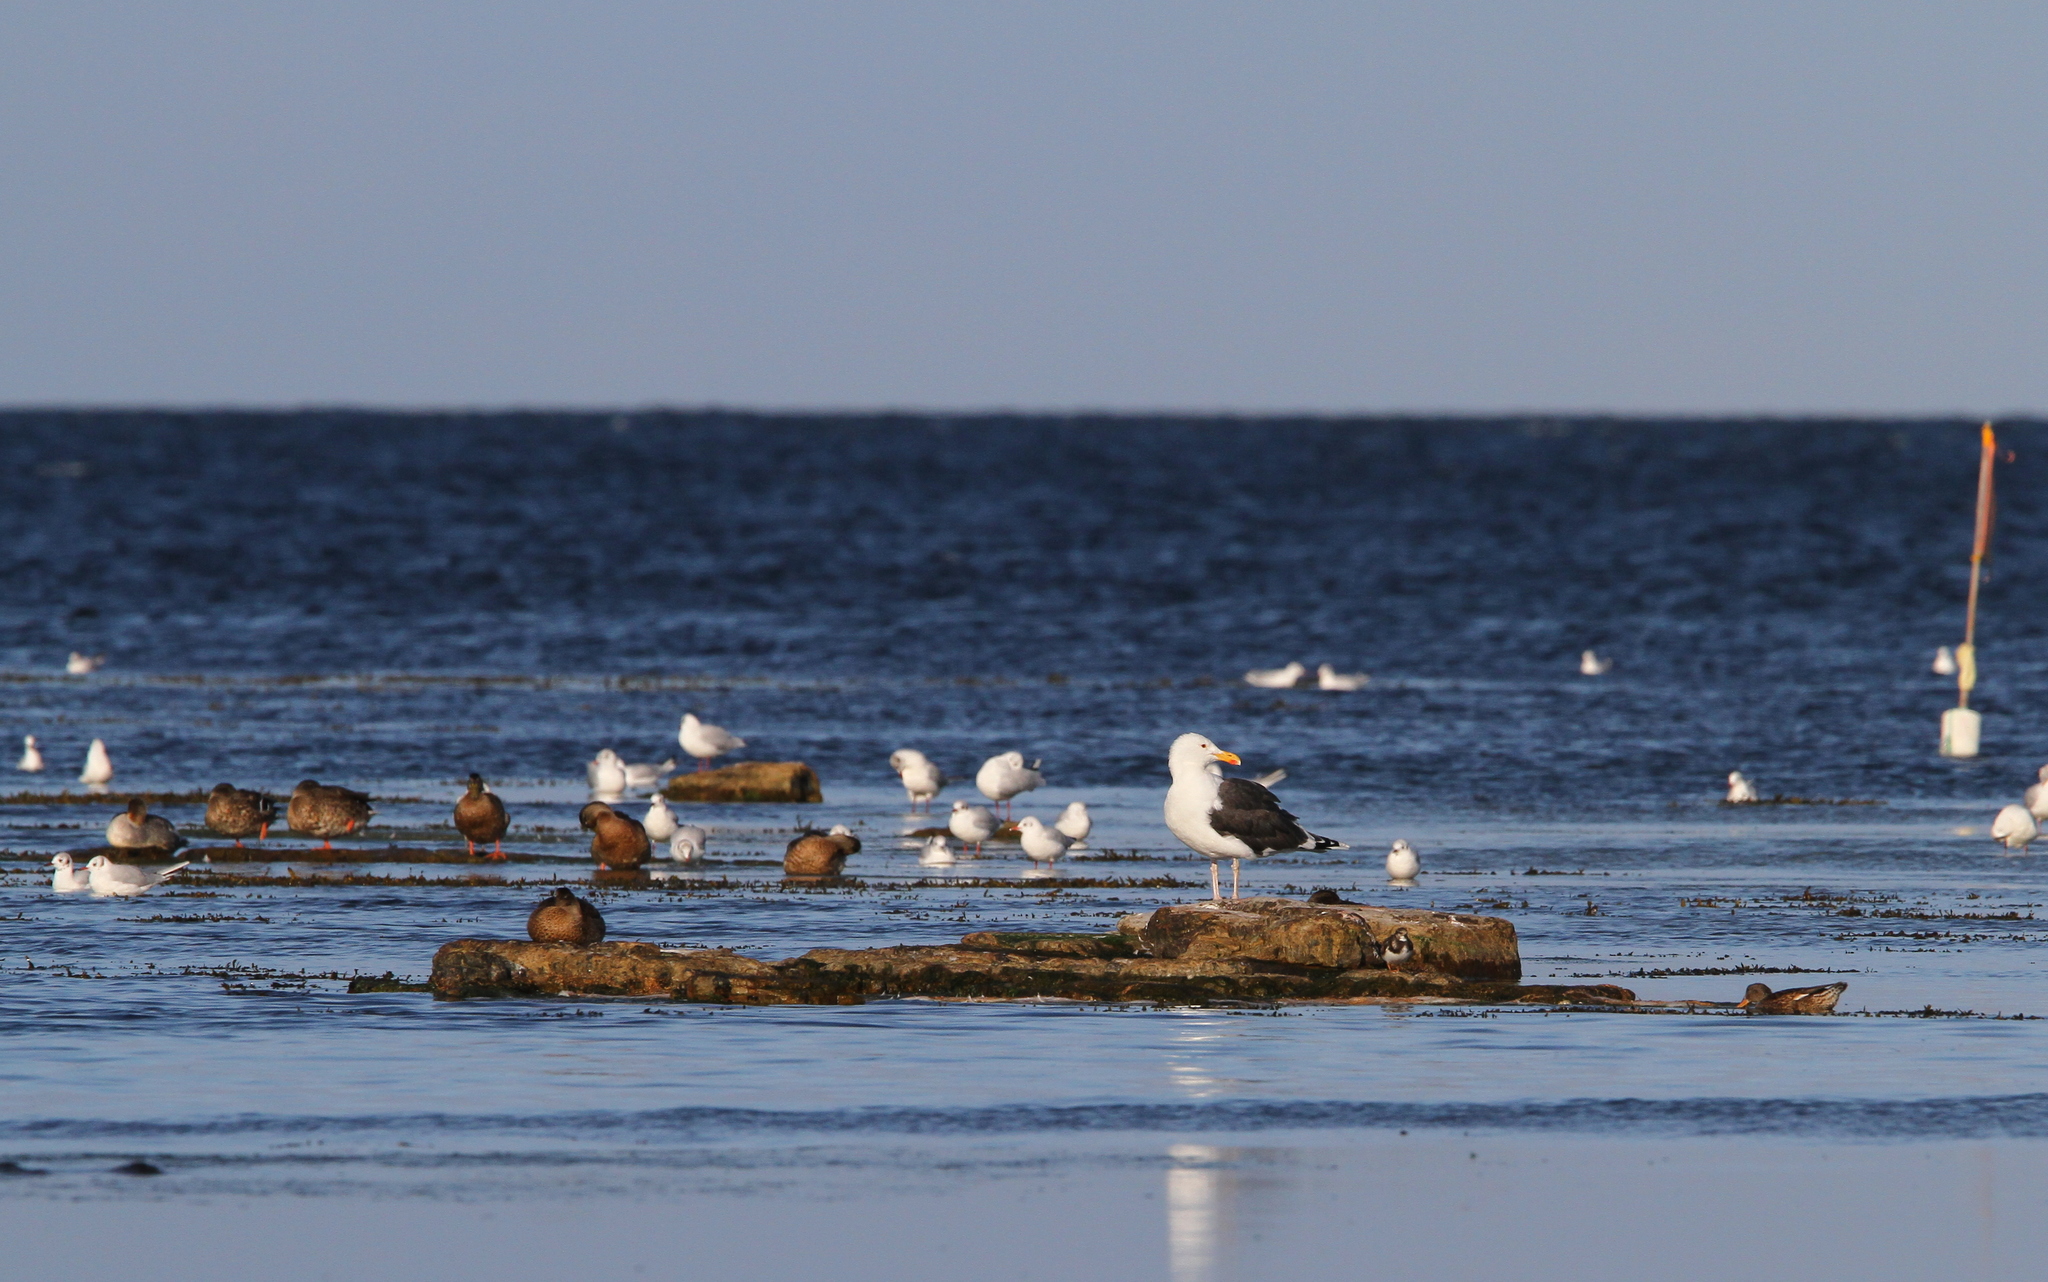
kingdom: Animalia
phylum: Chordata
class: Aves
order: Charadriiformes
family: Laridae
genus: Larus
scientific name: Larus marinus
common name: Great black-backed gull
